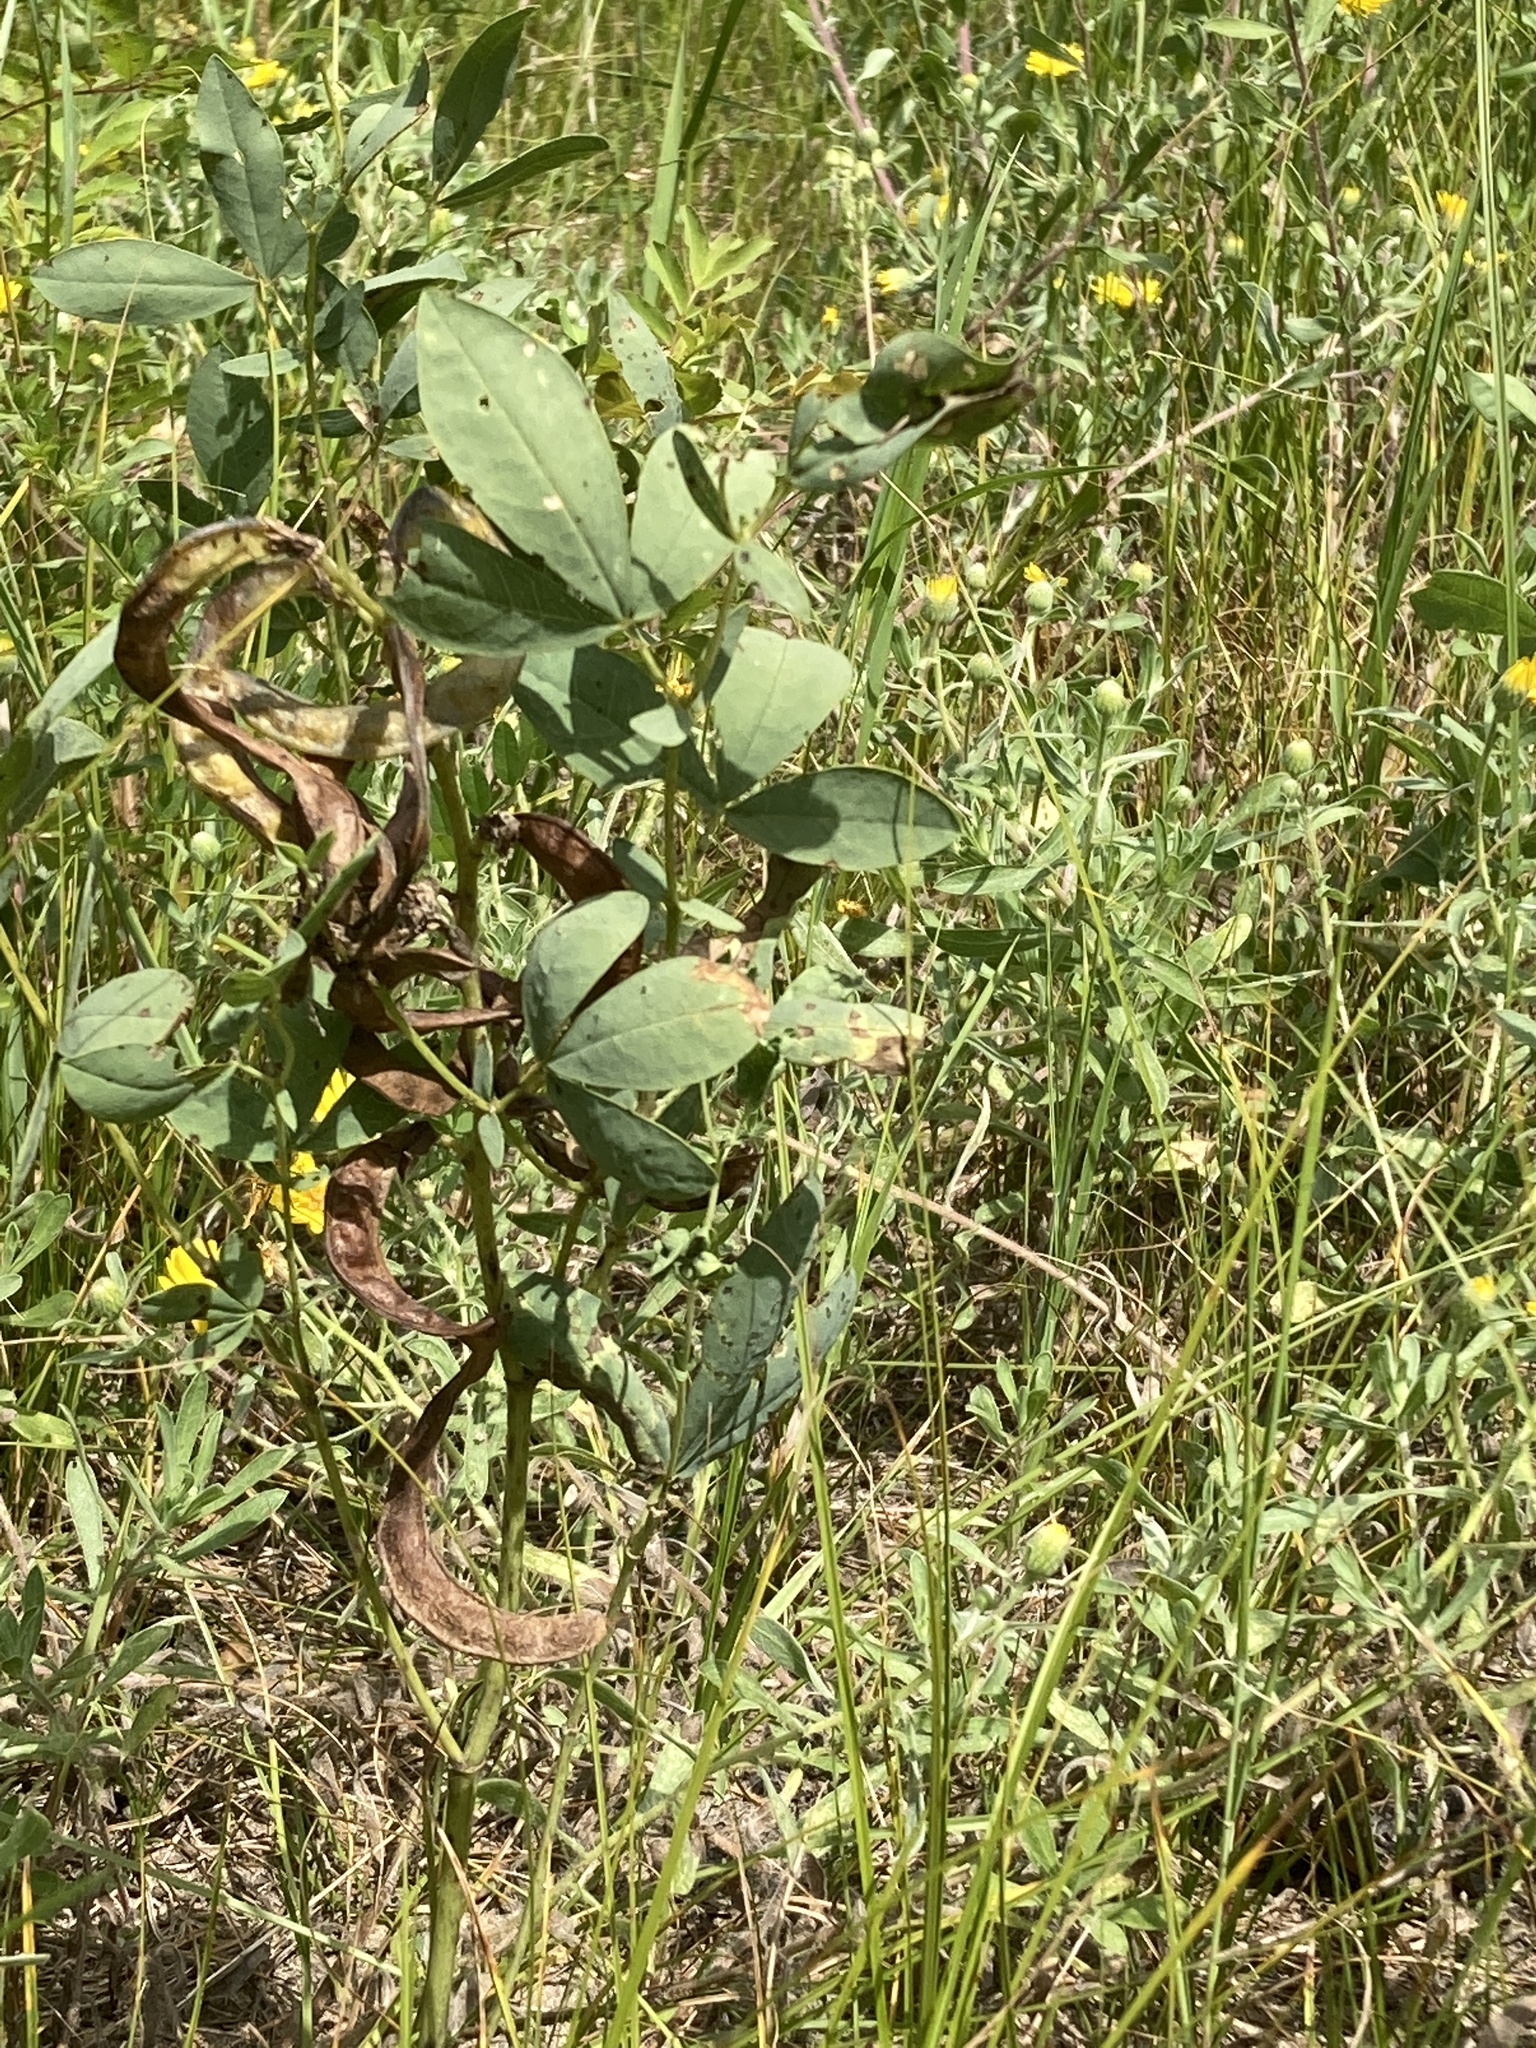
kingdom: Plantae
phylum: Tracheophyta
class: Magnoliopsida
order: Fabales
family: Fabaceae
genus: Thermopsis
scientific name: Thermopsis rhombifolia
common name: Circle-pod-pea
